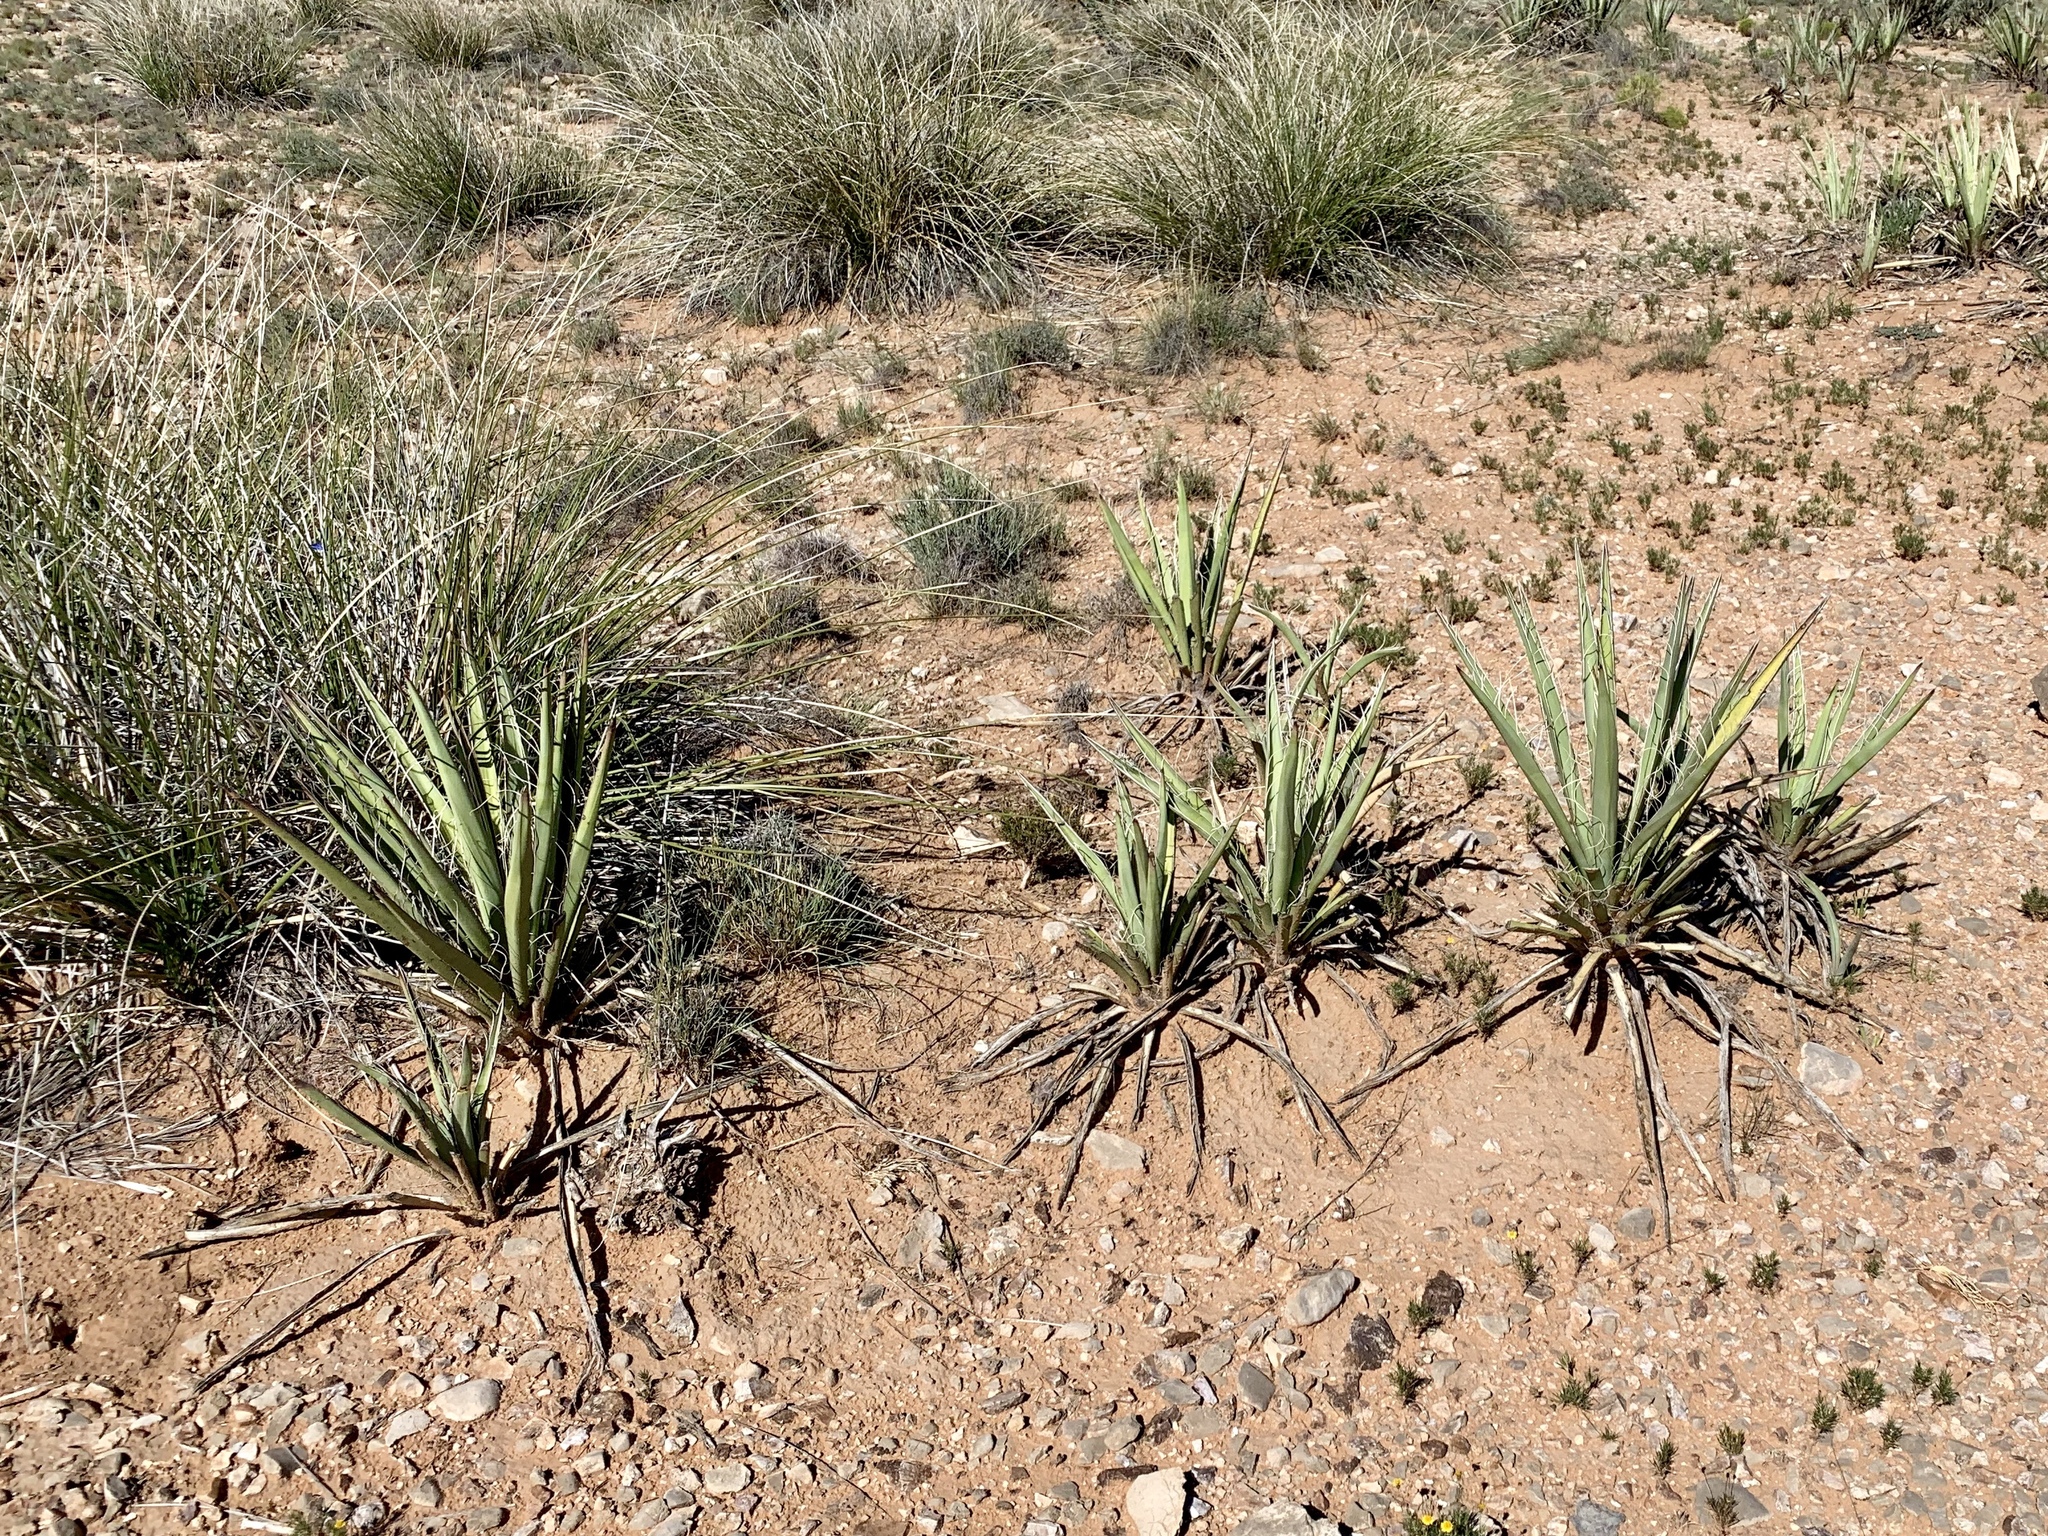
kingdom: Plantae
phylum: Tracheophyta
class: Liliopsida
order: Asparagales
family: Asparagaceae
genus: Yucca
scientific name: Yucca baccata
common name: Banana yucca
